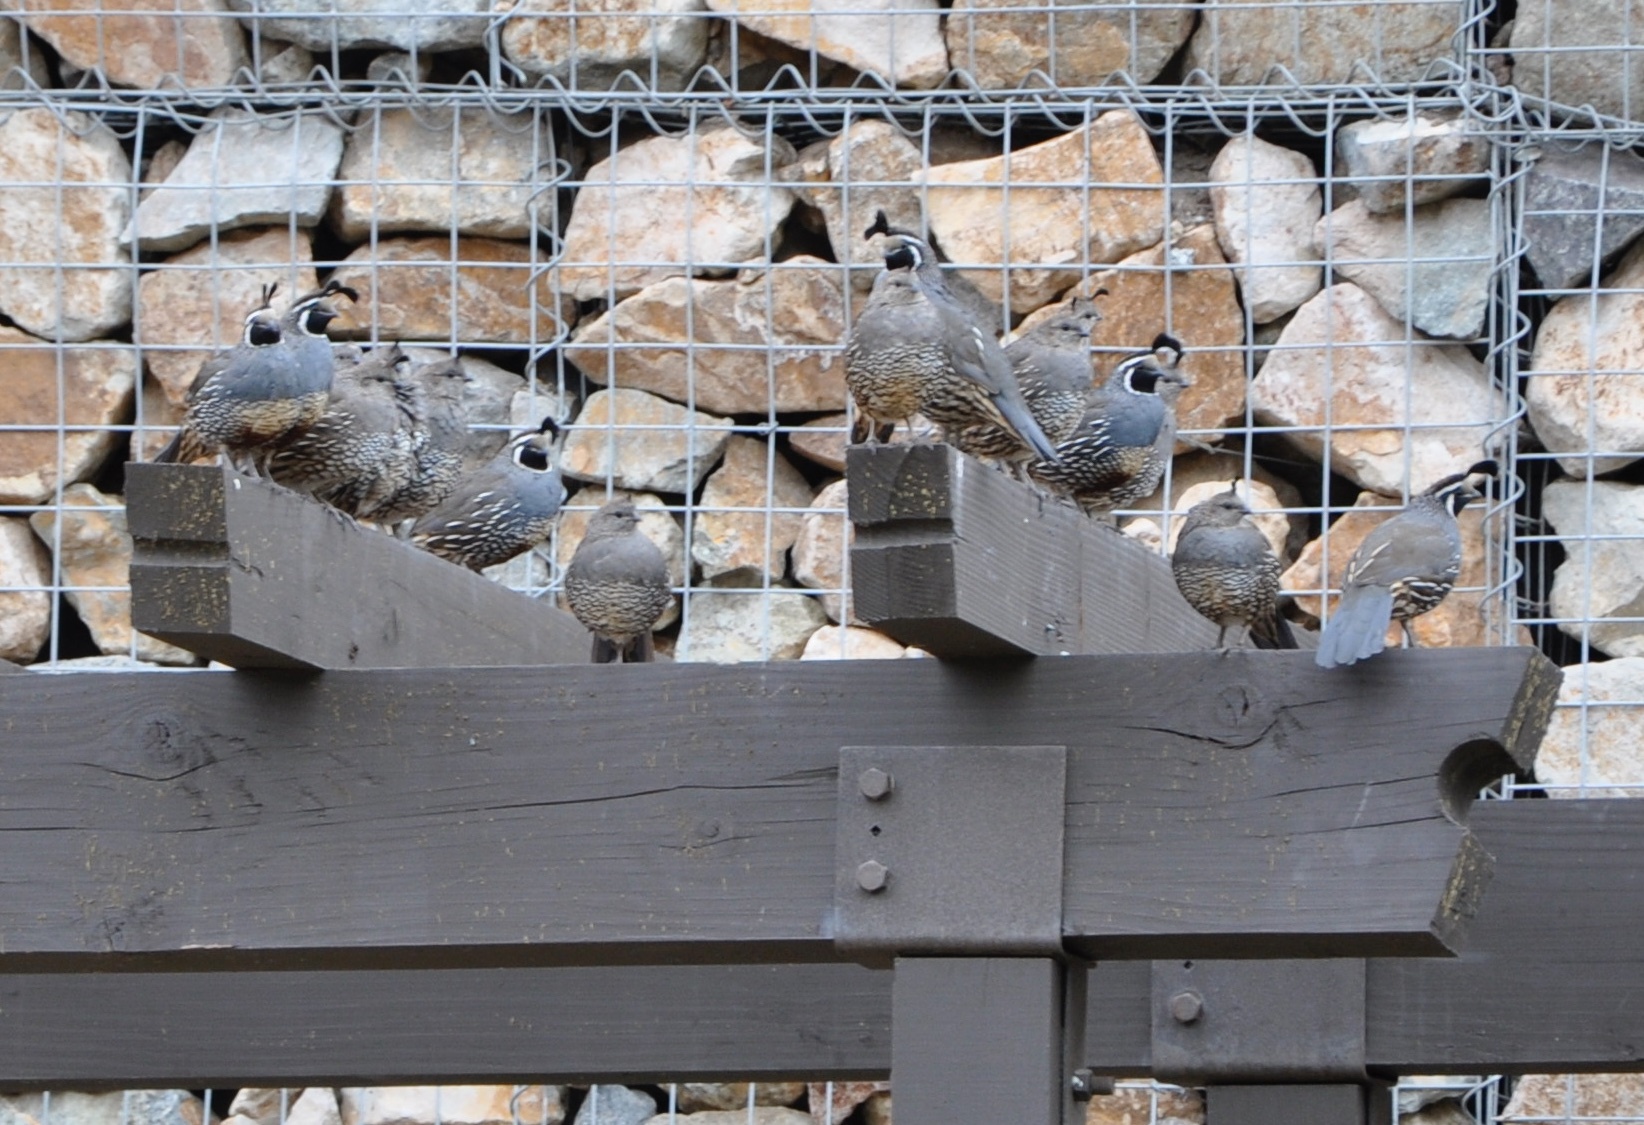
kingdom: Animalia
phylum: Chordata
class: Aves
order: Galliformes
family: Odontophoridae
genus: Callipepla
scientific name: Callipepla californica
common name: California quail
